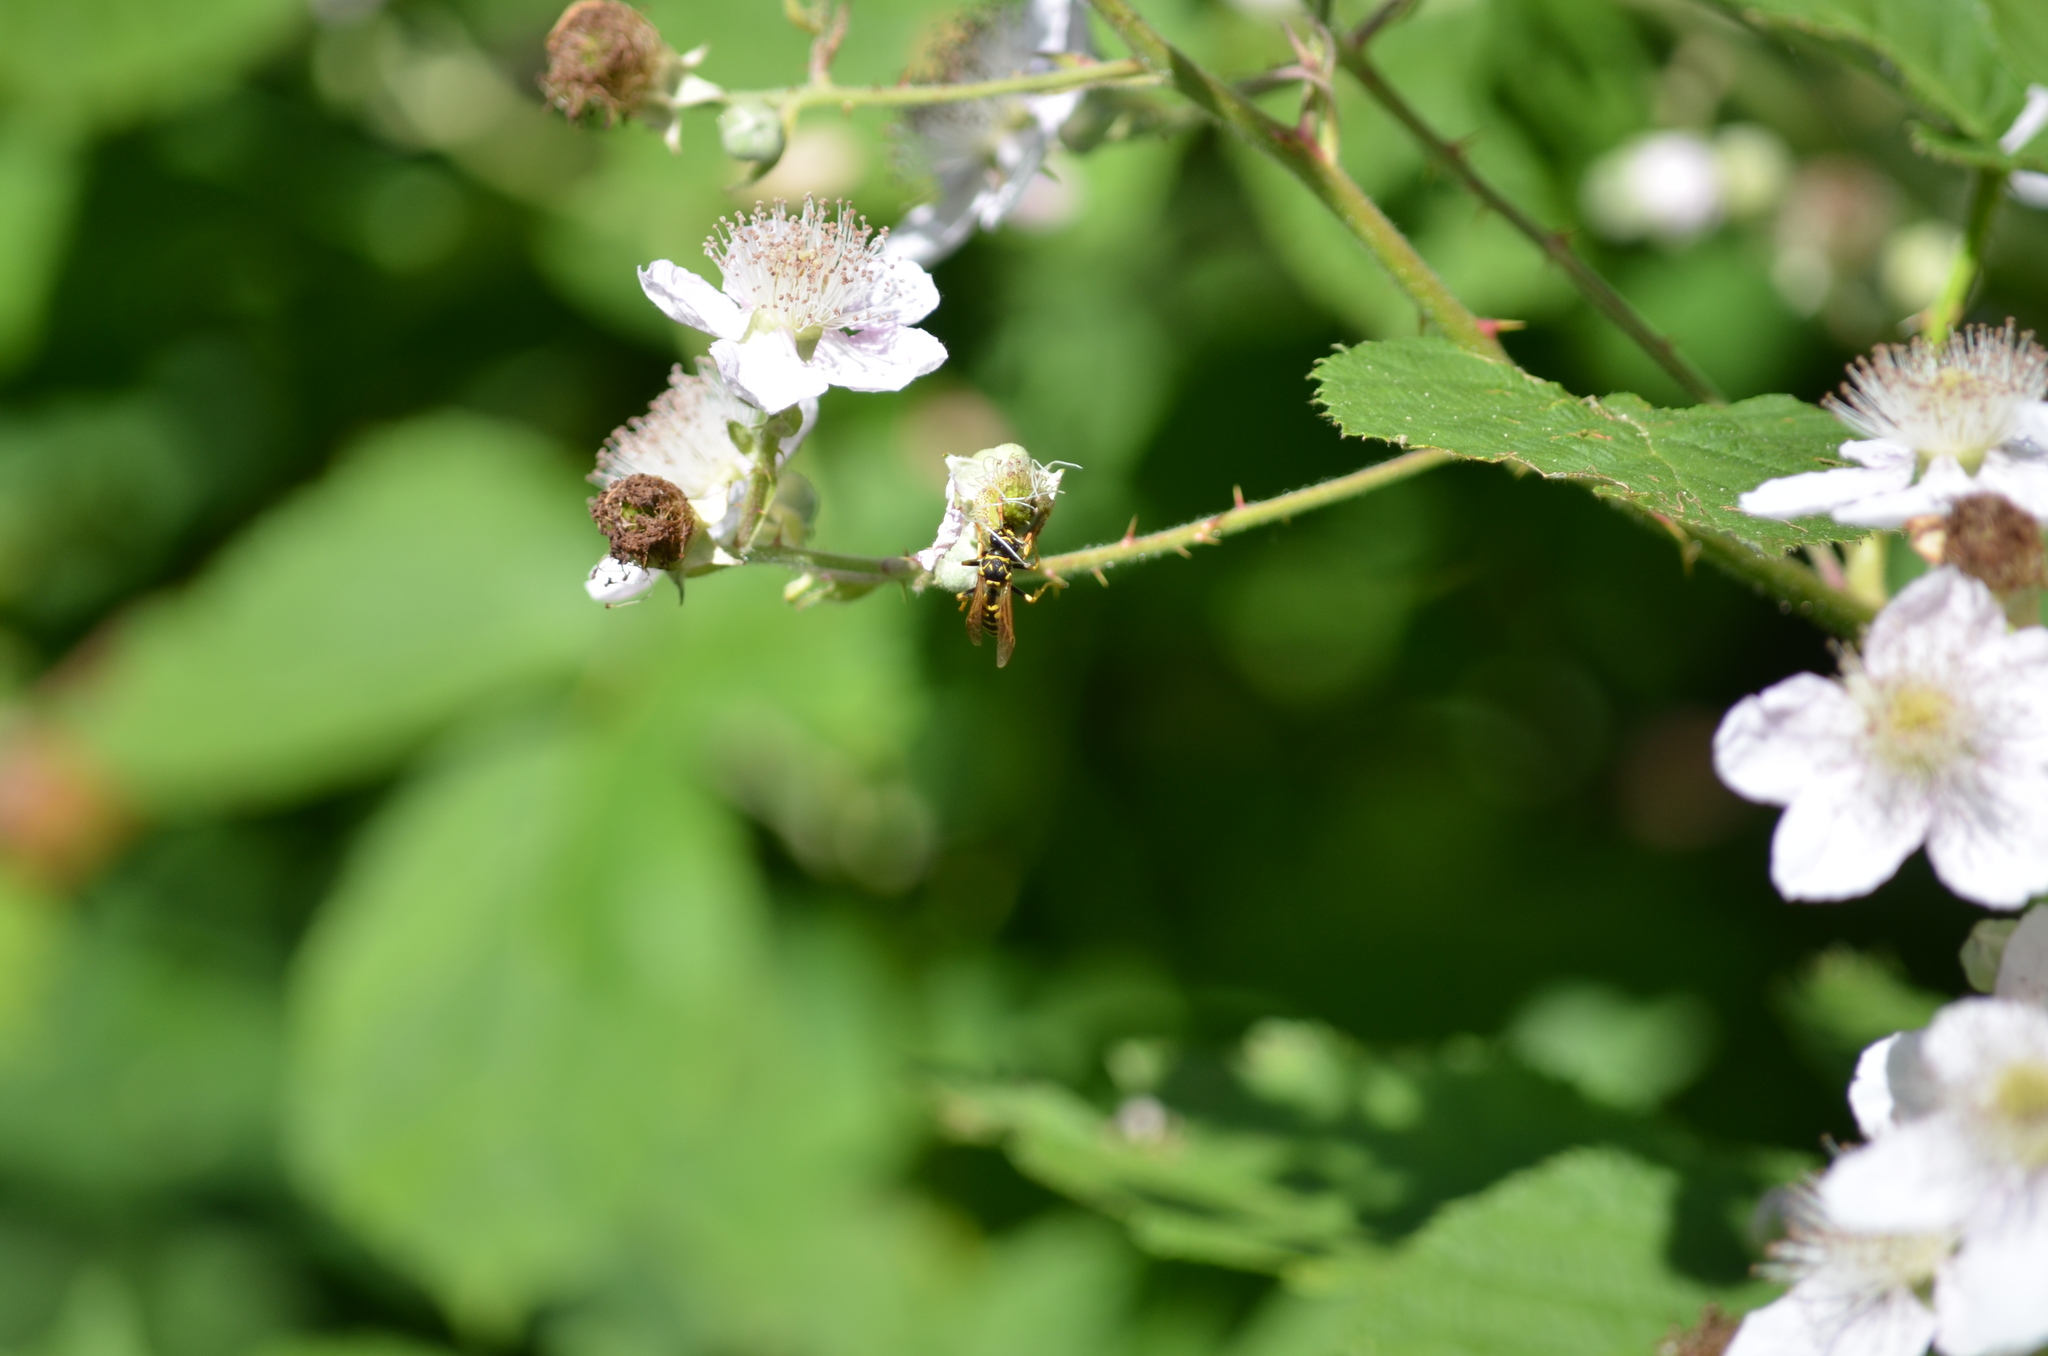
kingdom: Animalia
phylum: Arthropoda
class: Insecta
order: Hymenoptera
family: Eumenidae
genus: Polistes
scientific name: Polistes dominula
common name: Paper wasp
